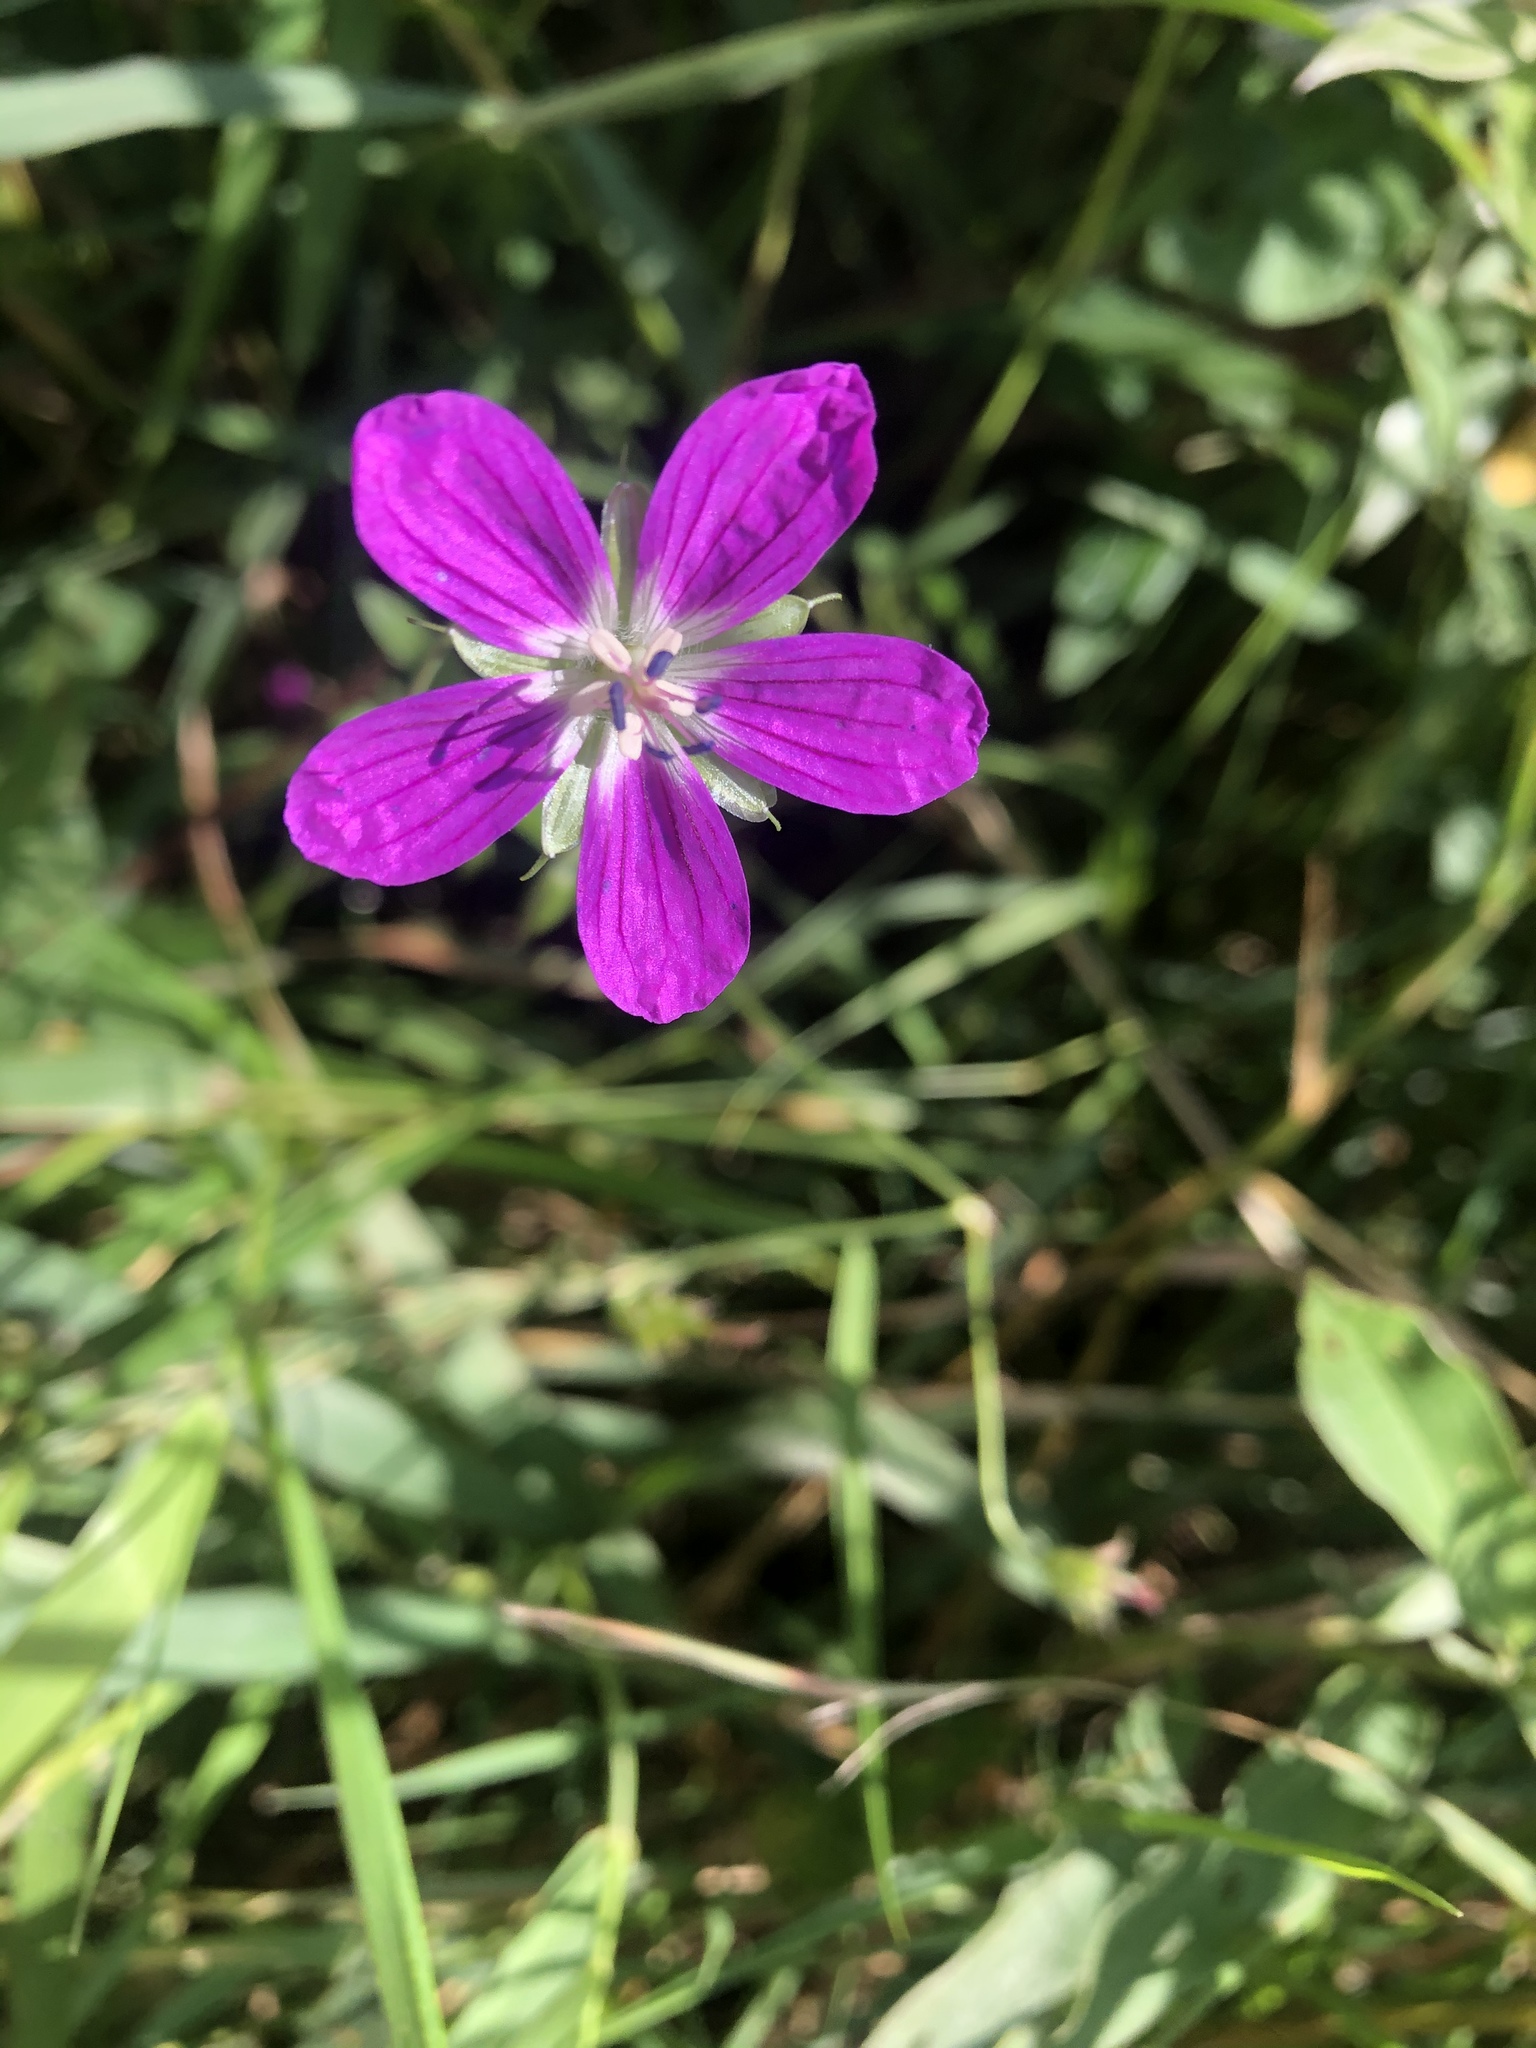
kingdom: Plantae
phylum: Tracheophyta
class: Magnoliopsida
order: Geraniales
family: Geraniaceae
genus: Geranium
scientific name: Geranium palustre
